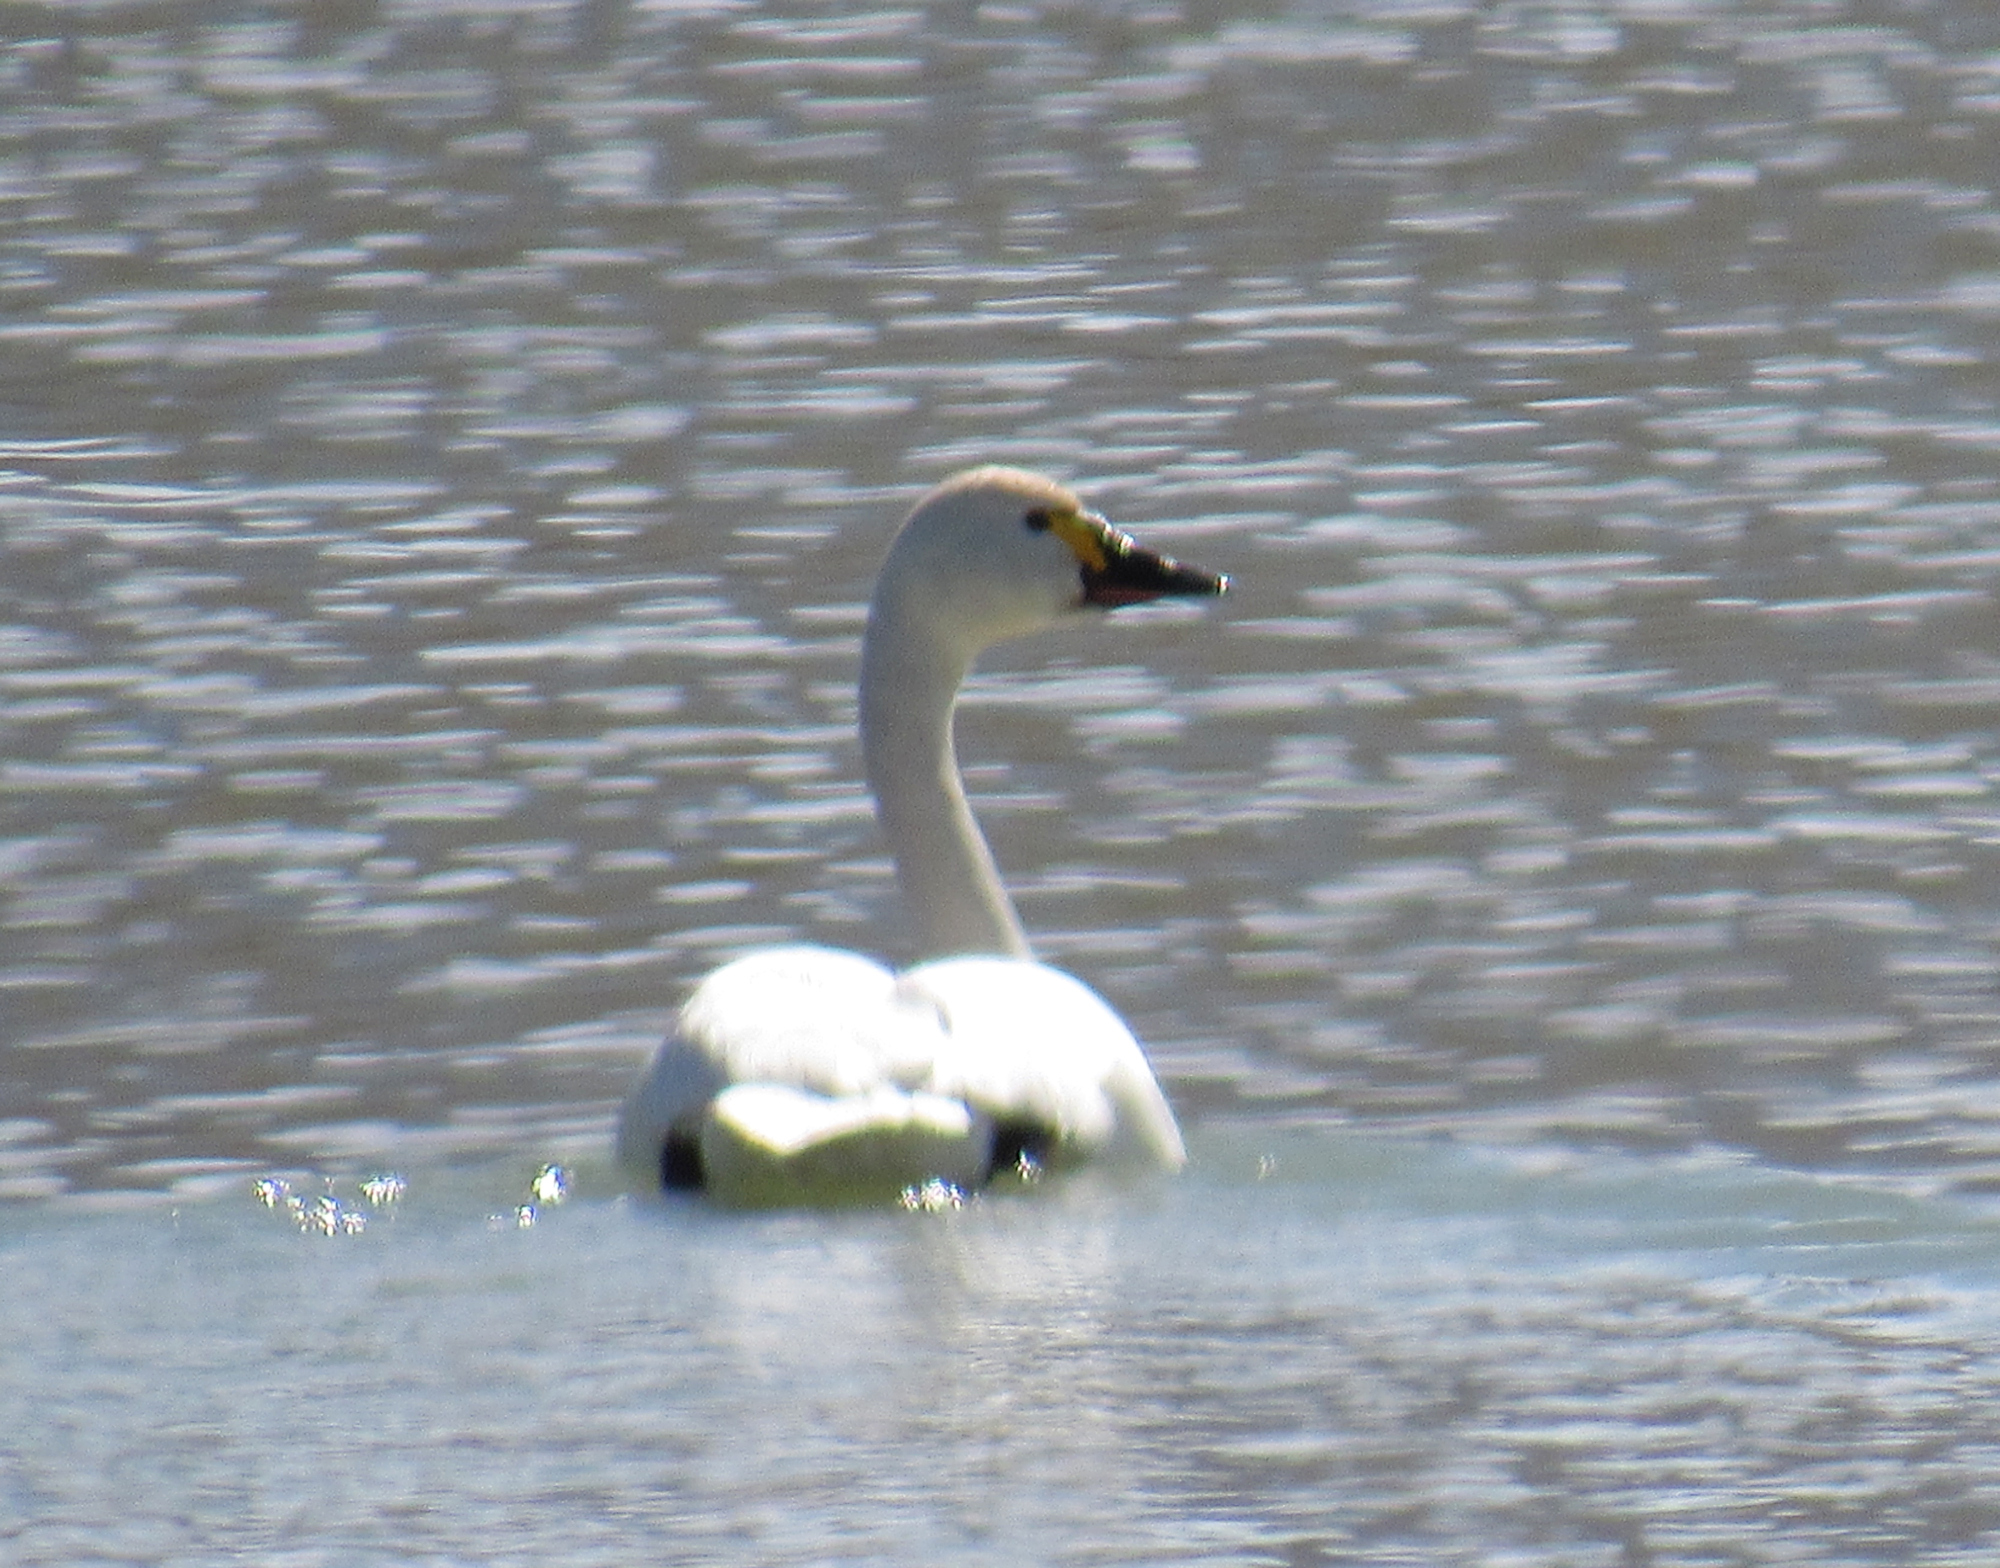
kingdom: Animalia
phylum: Chordata
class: Aves
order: Anseriformes
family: Anatidae
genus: Cygnus
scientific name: Cygnus columbianus
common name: Tundra swan
